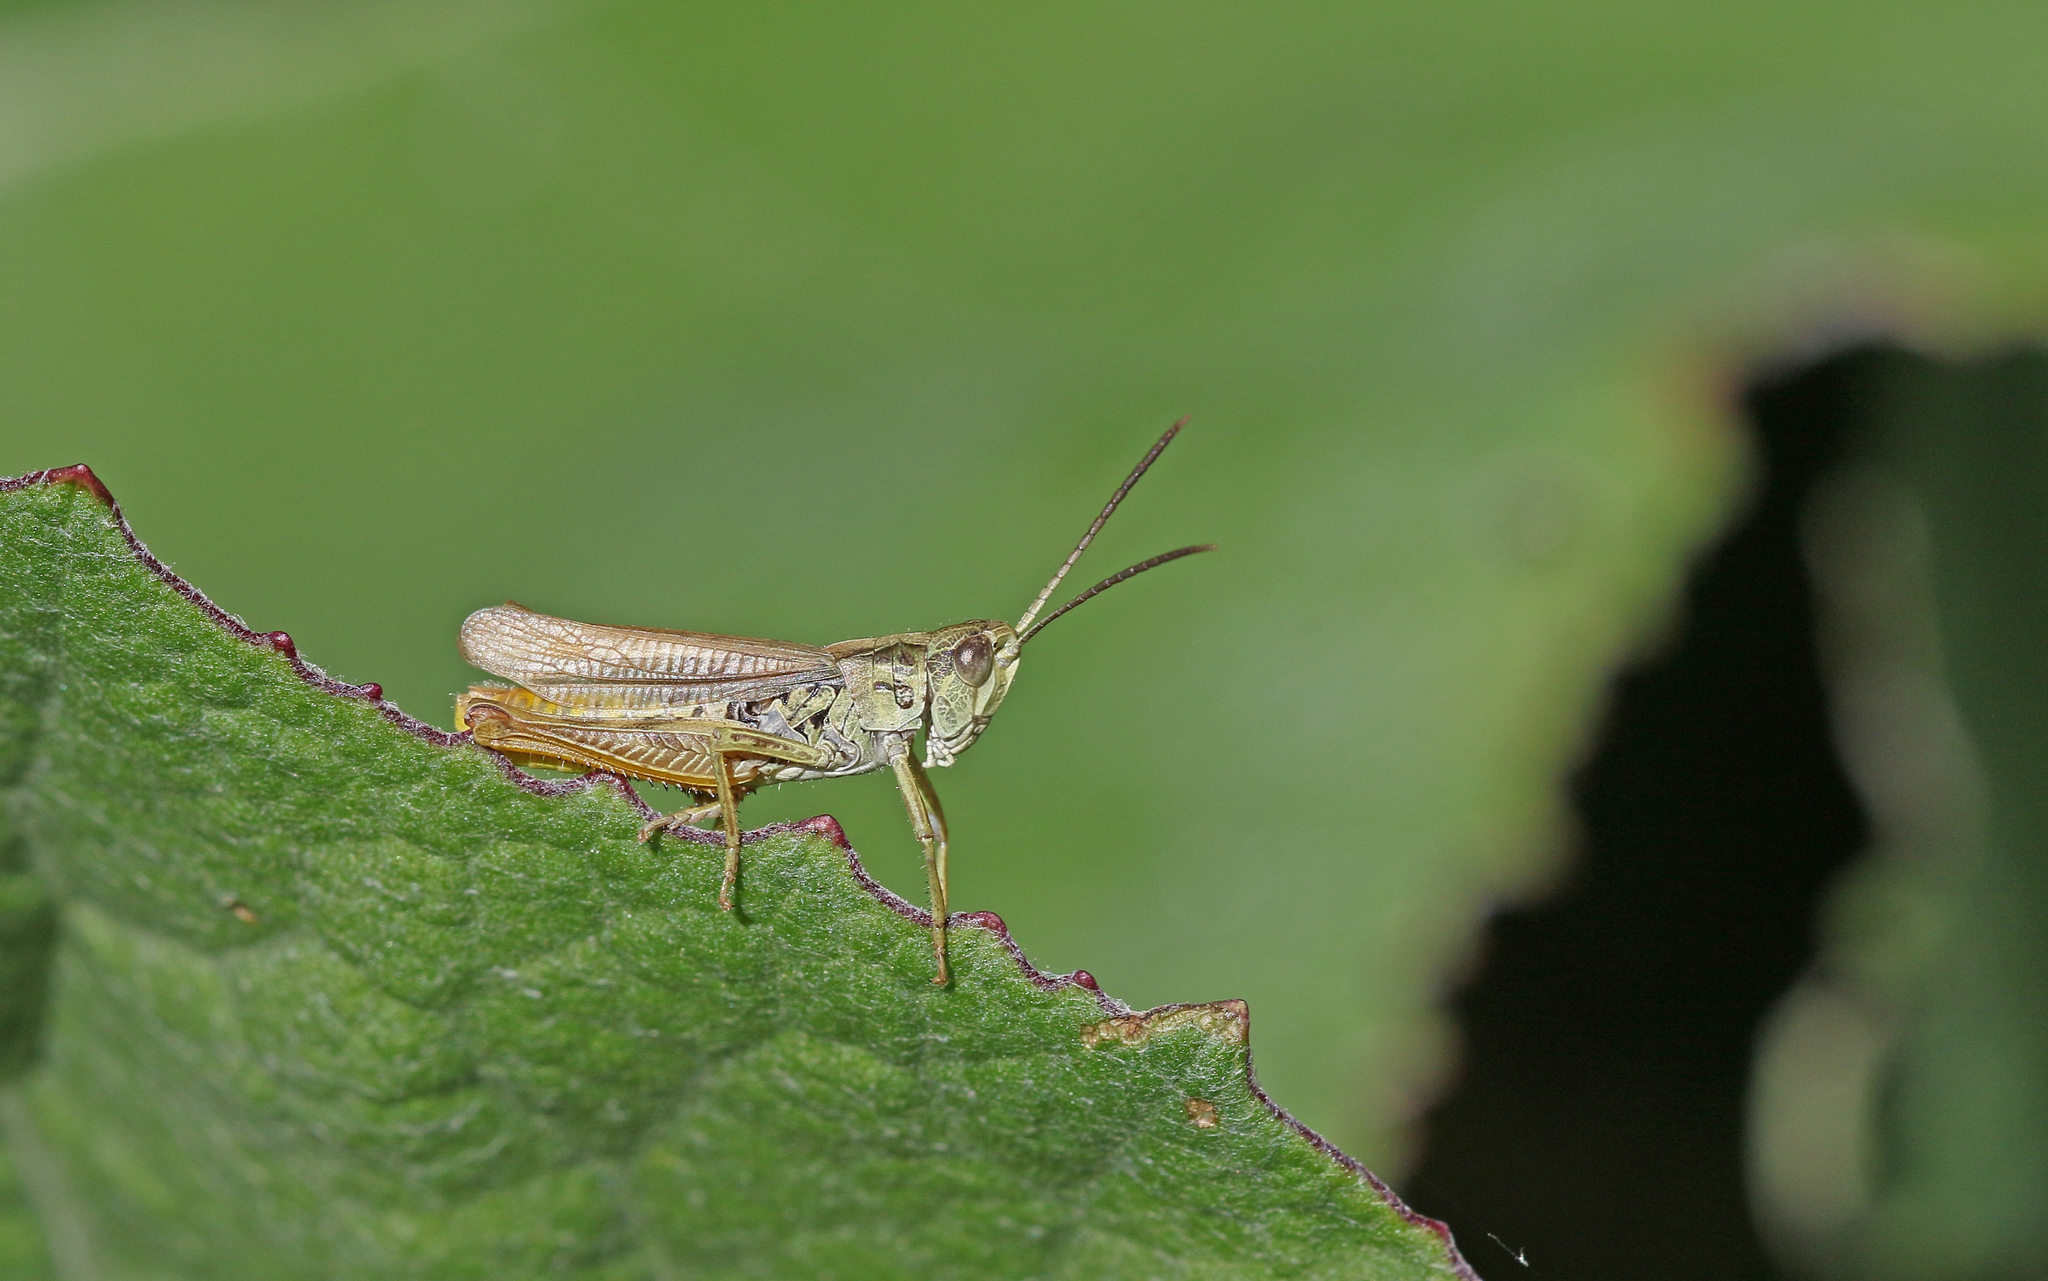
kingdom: Animalia
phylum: Arthropoda
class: Insecta
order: Orthoptera
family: Acrididae
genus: Chorthippus
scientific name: Chorthippus apricarius
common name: Upland field grasshopper
